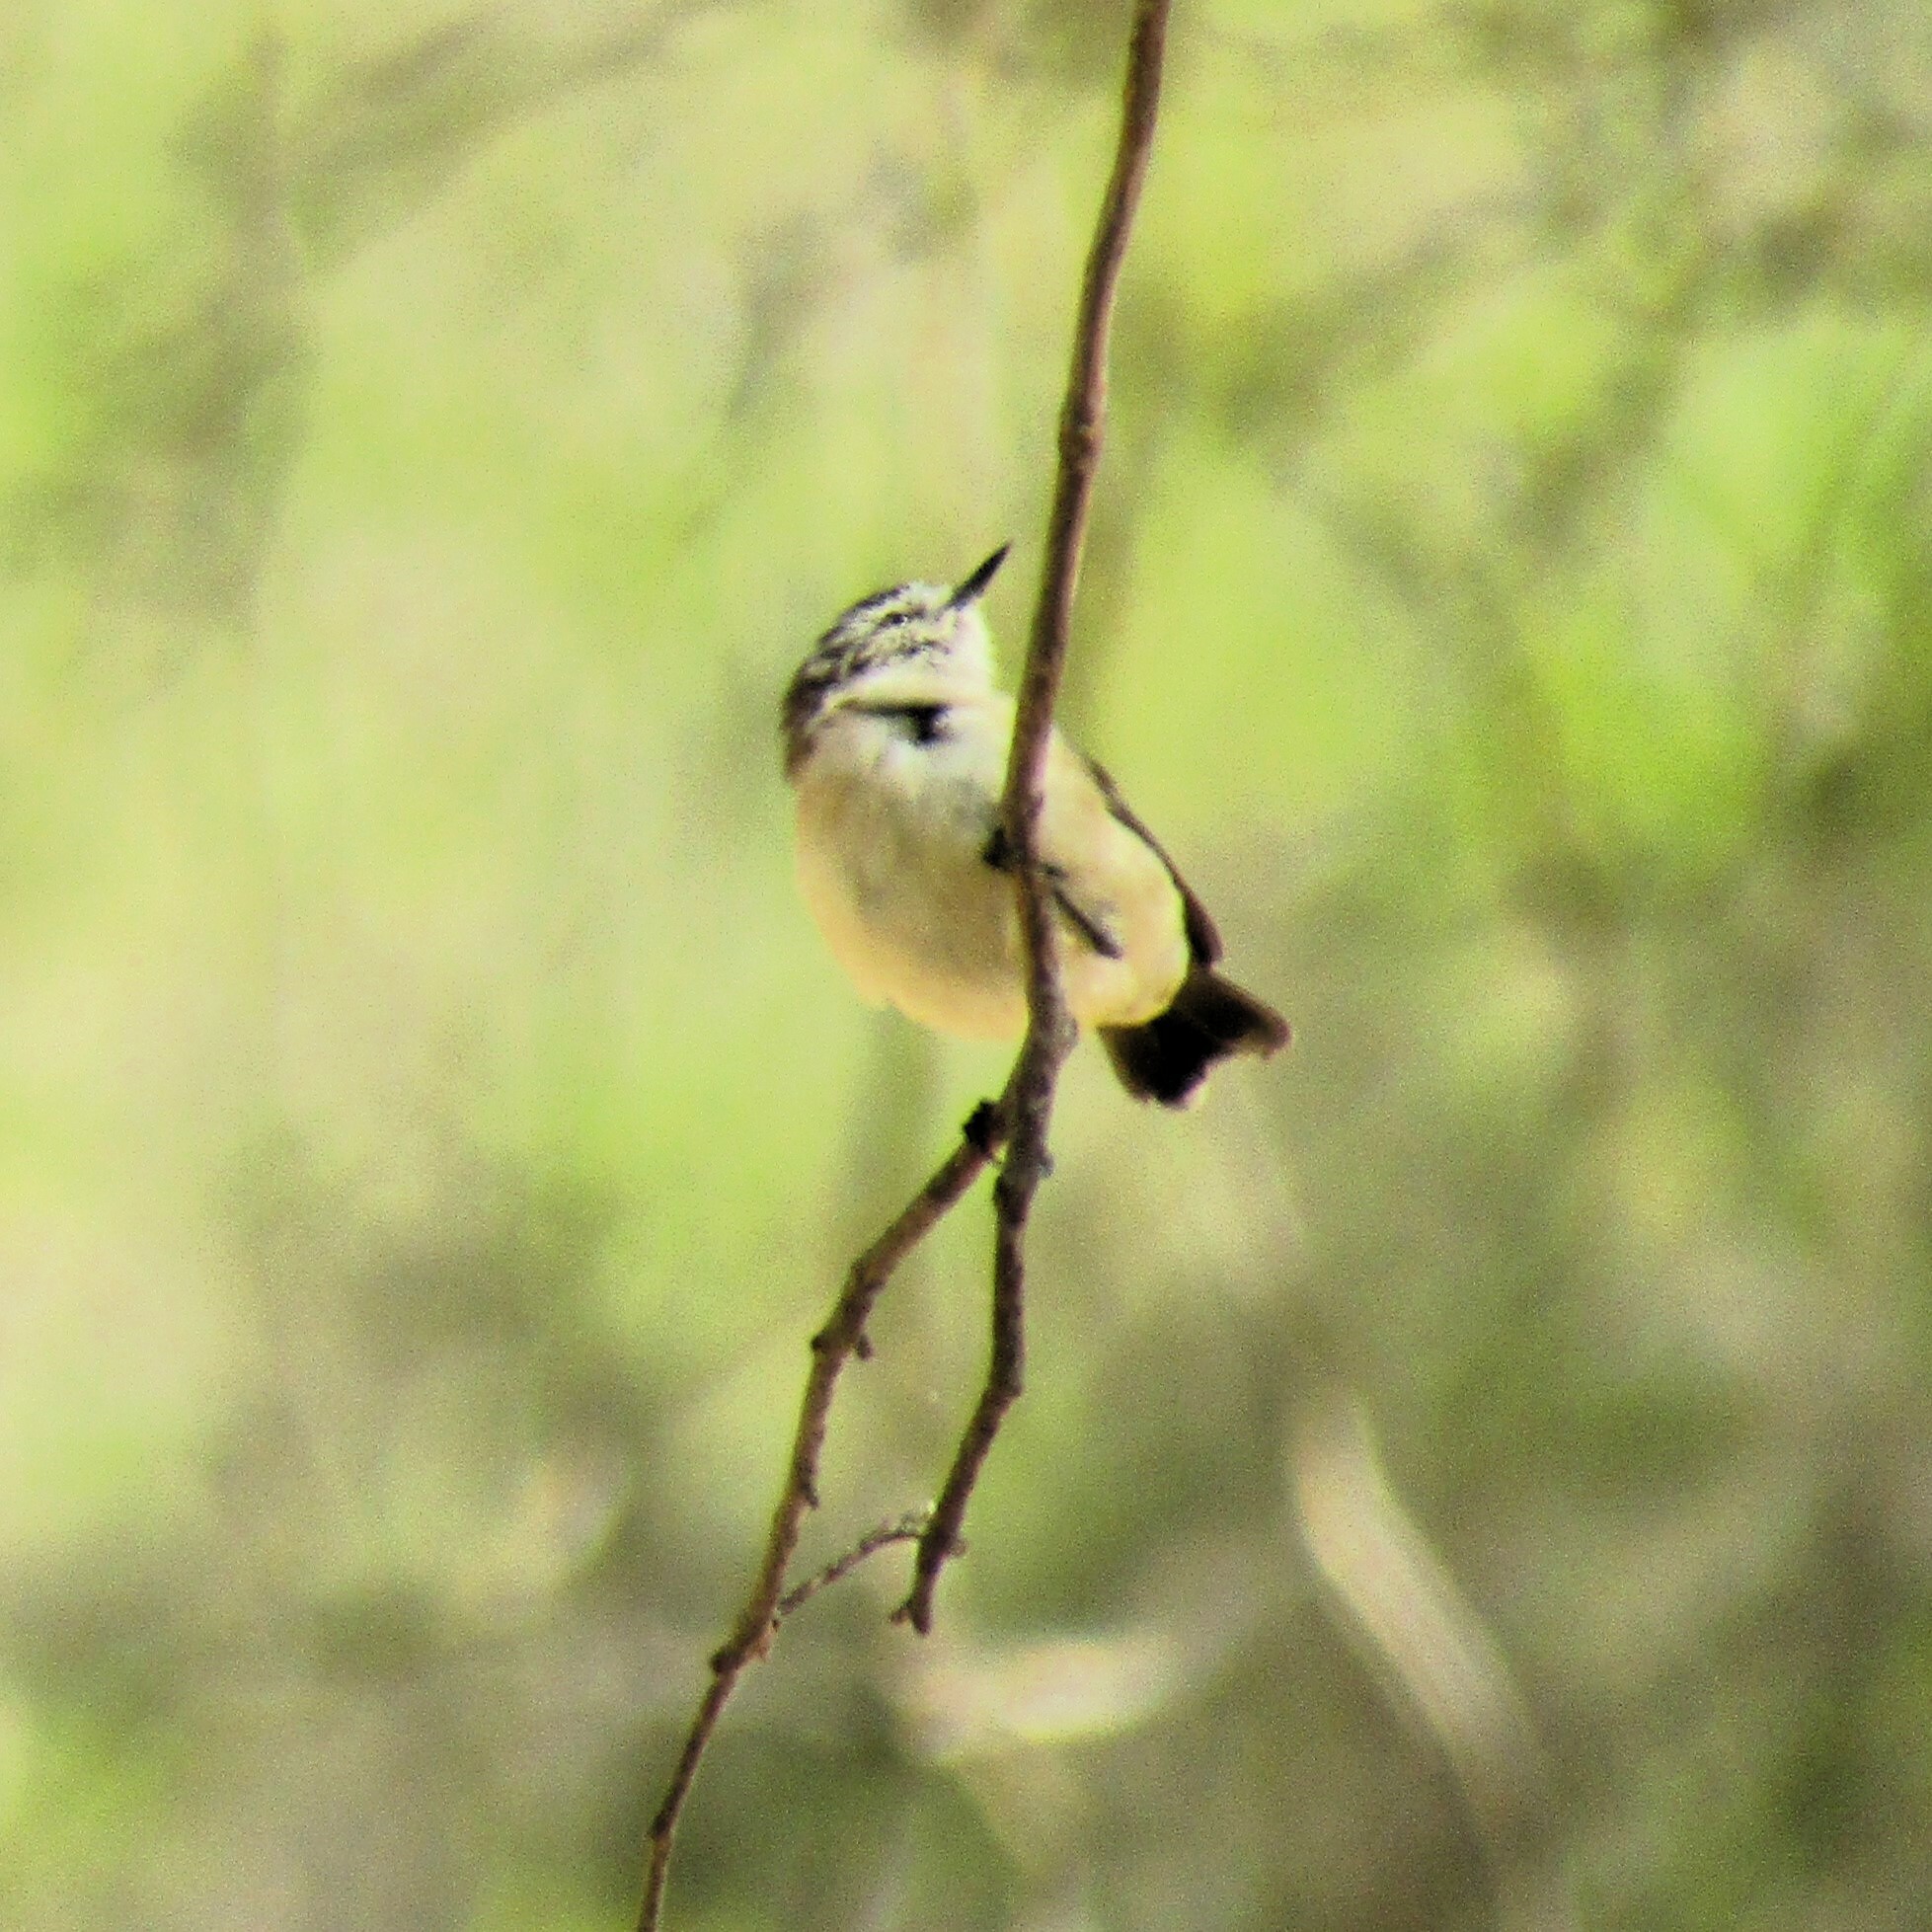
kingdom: Animalia
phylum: Chordata
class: Aves
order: Passeriformes
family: Acanthizidae
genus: Acanthiza
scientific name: Acanthiza chrysorrhoa
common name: Yellow-rumped thornbill
